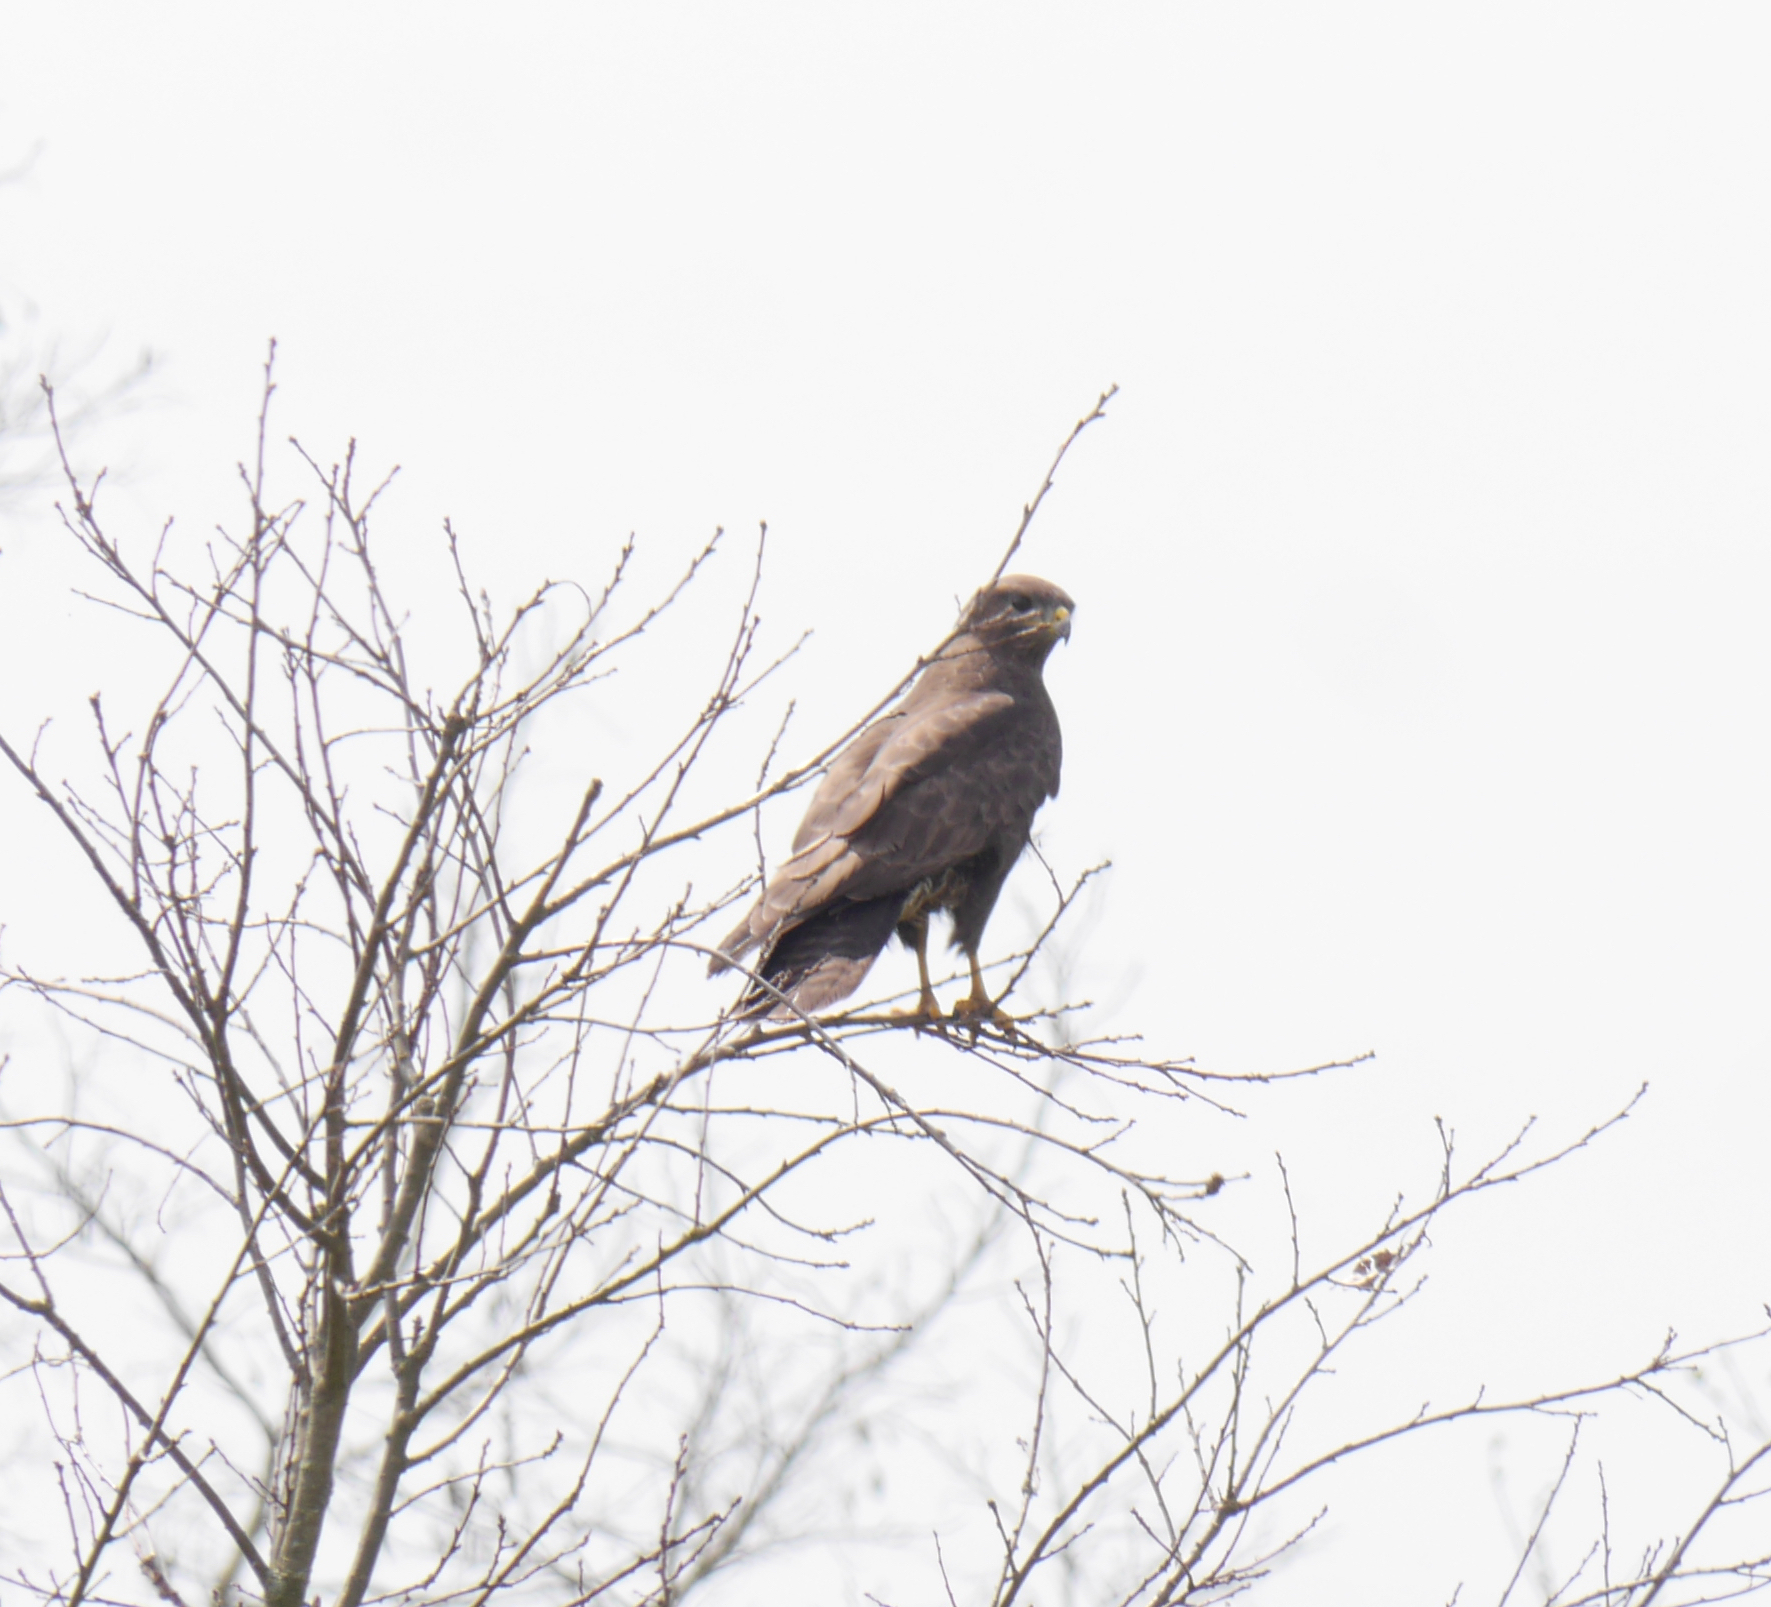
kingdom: Animalia
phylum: Chordata
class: Aves
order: Accipitriformes
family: Accipitridae
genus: Buteo
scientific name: Buteo buteo
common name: Common buzzard
